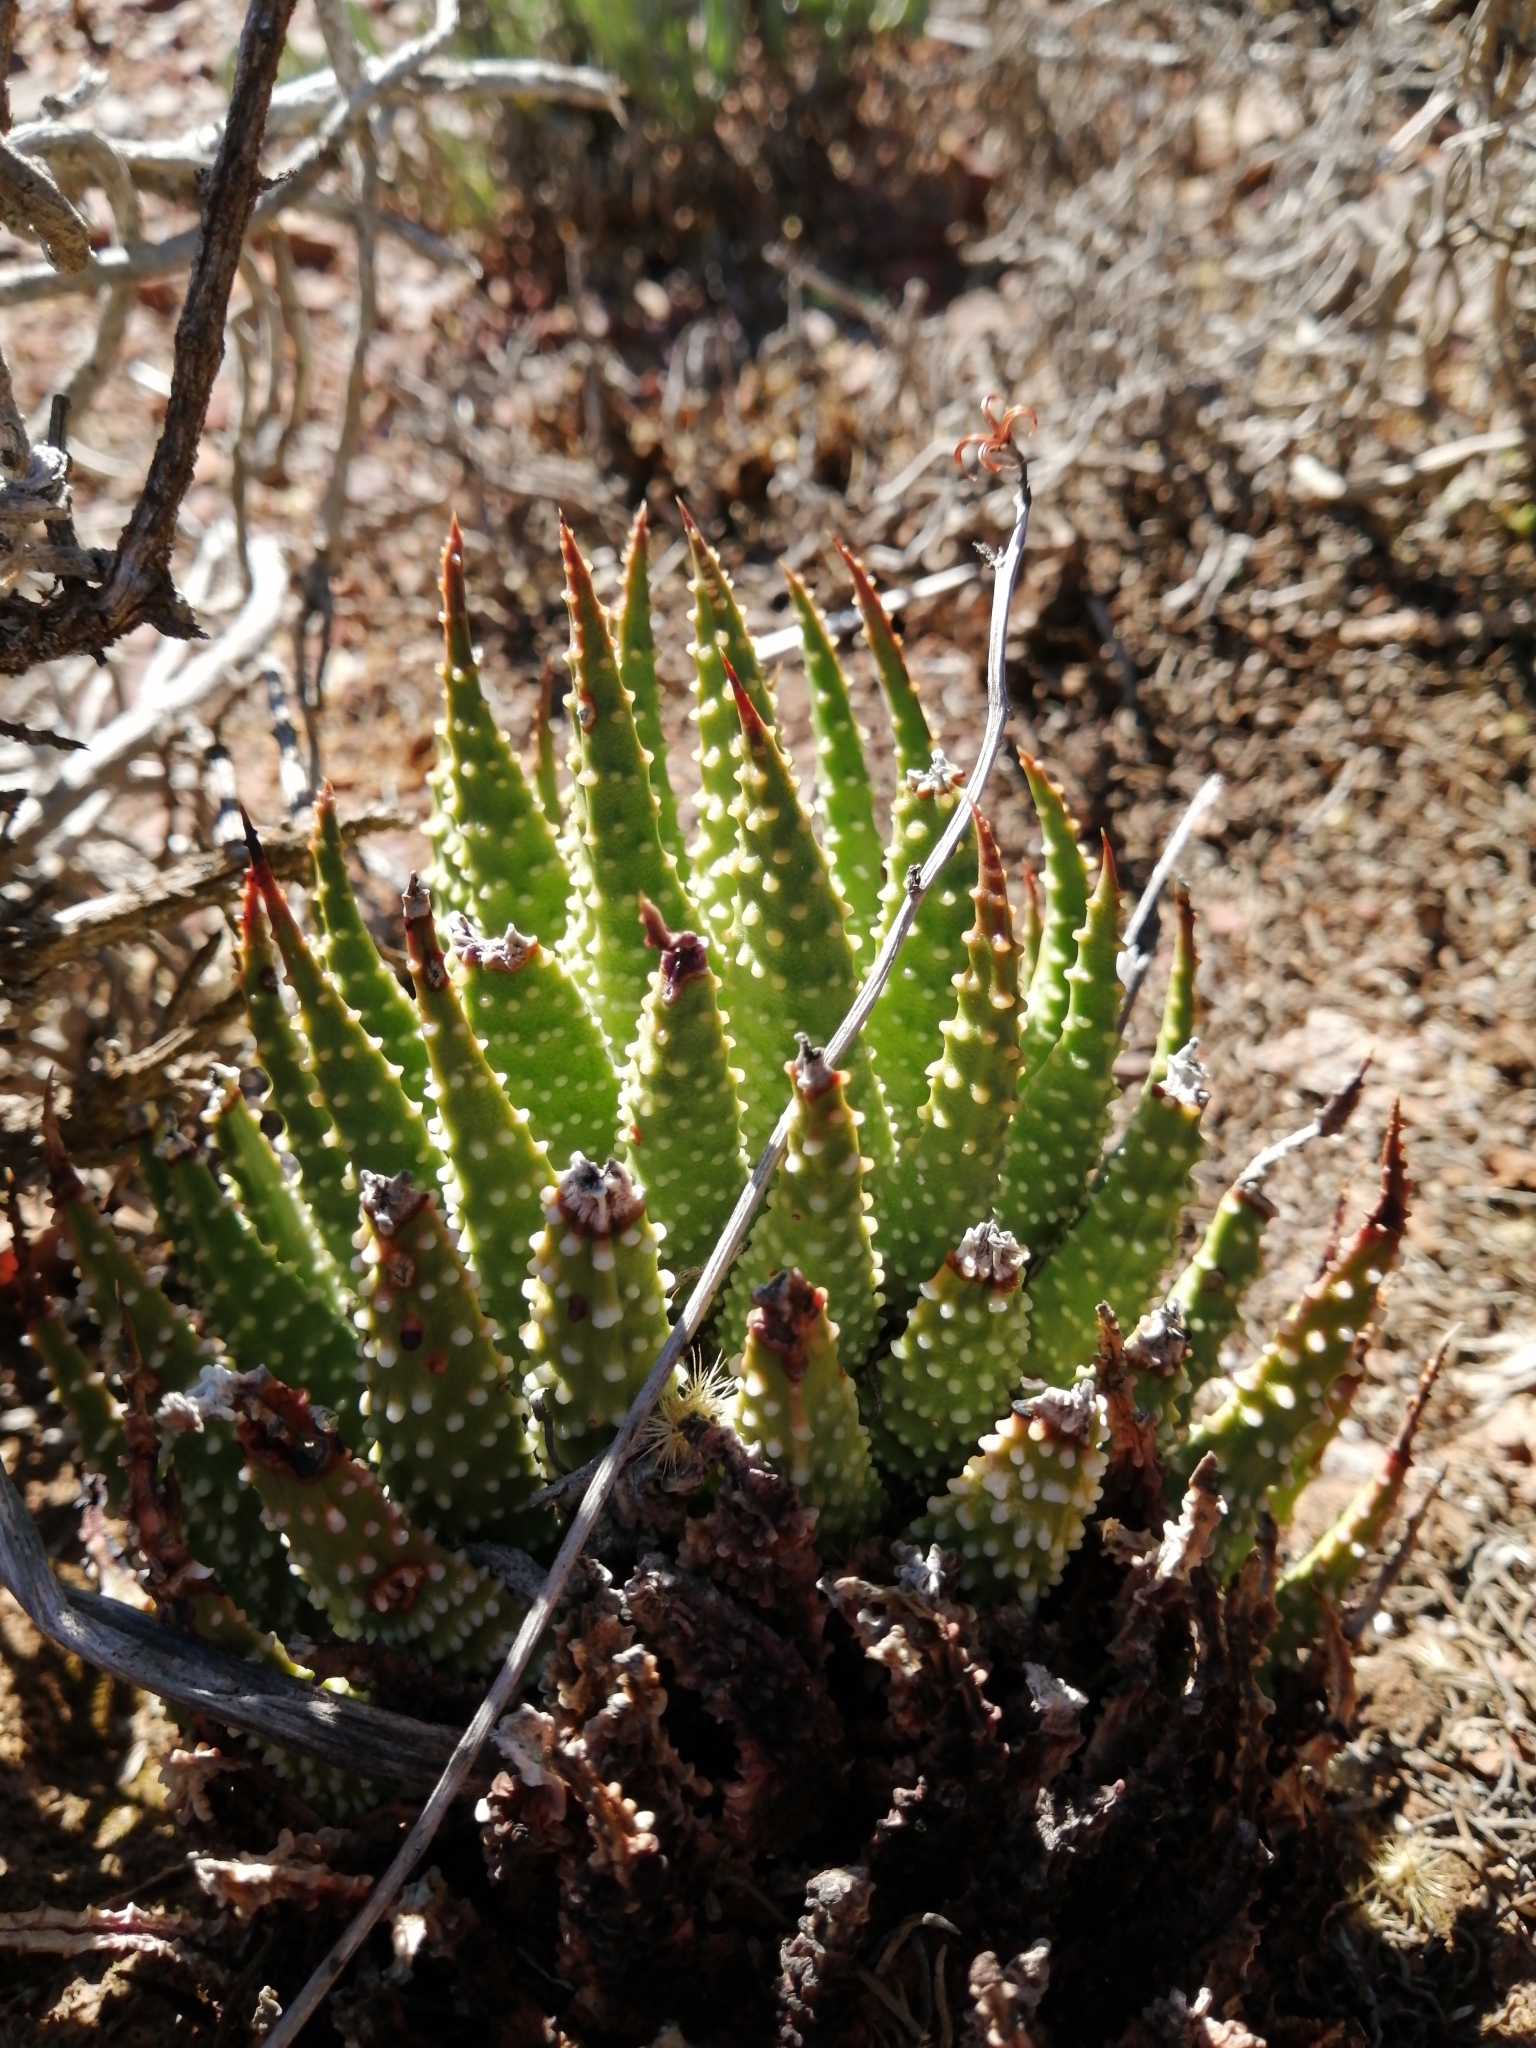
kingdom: Plantae
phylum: Tracheophyta
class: Liliopsida
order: Asparagales
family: Asphodelaceae
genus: Tulista
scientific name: Tulista pumila
